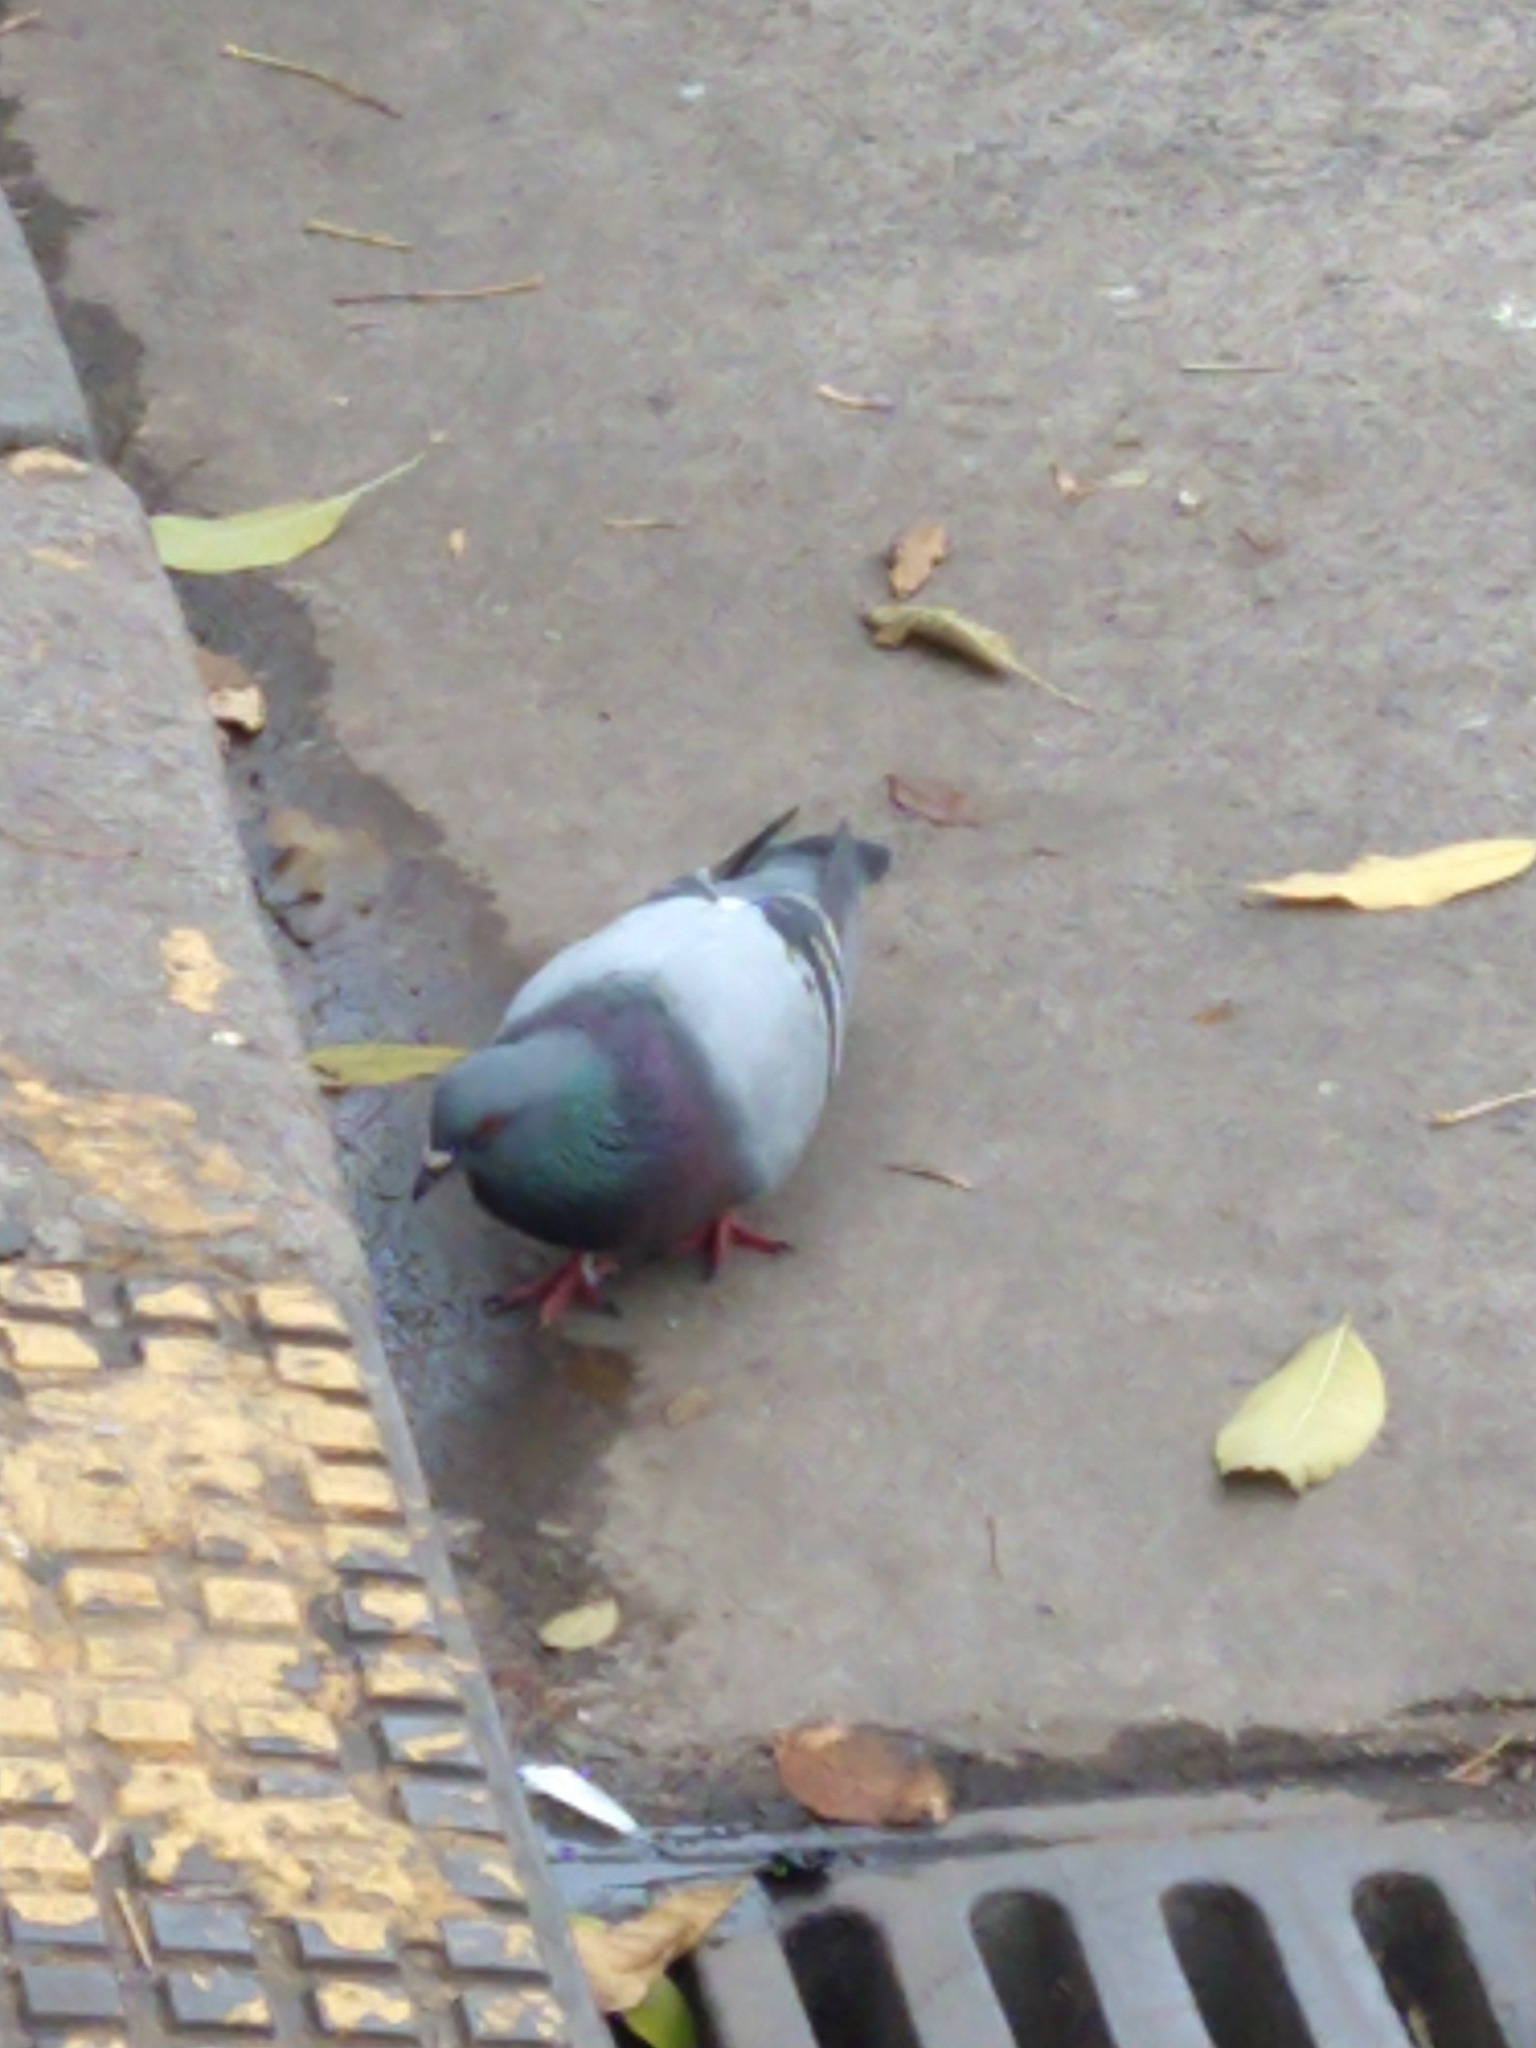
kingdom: Animalia
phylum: Chordata
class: Aves
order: Columbiformes
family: Columbidae
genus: Columba
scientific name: Columba livia
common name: Rock pigeon
